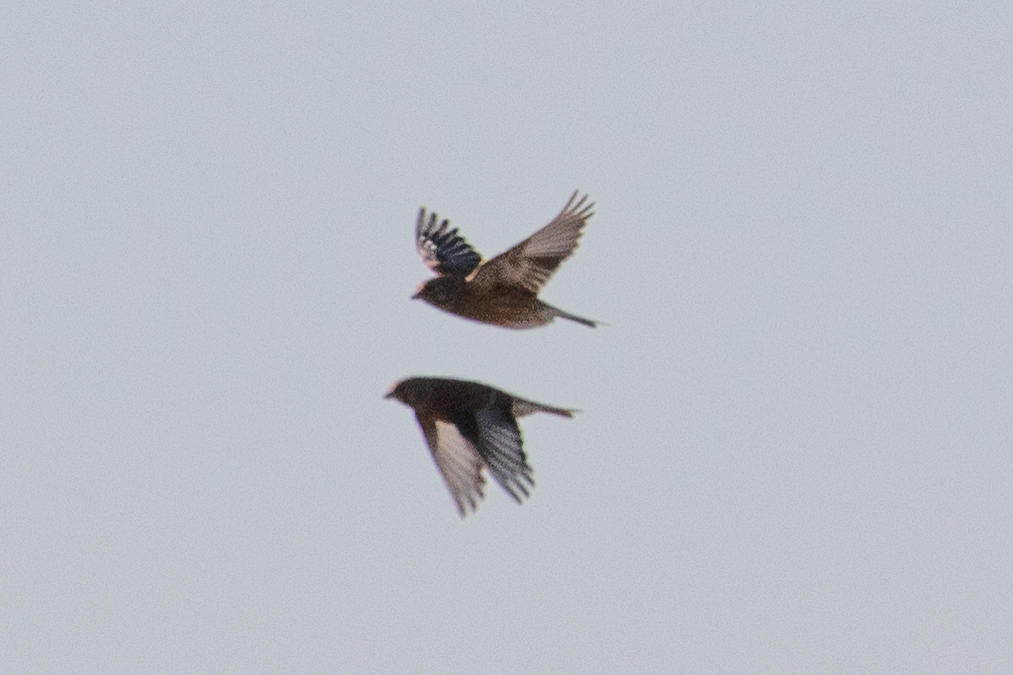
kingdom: Animalia
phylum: Chordata
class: Aves
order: Passeriformes
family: Fringillidae
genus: Linaria
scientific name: Linaria cannabina
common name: Common linnet
